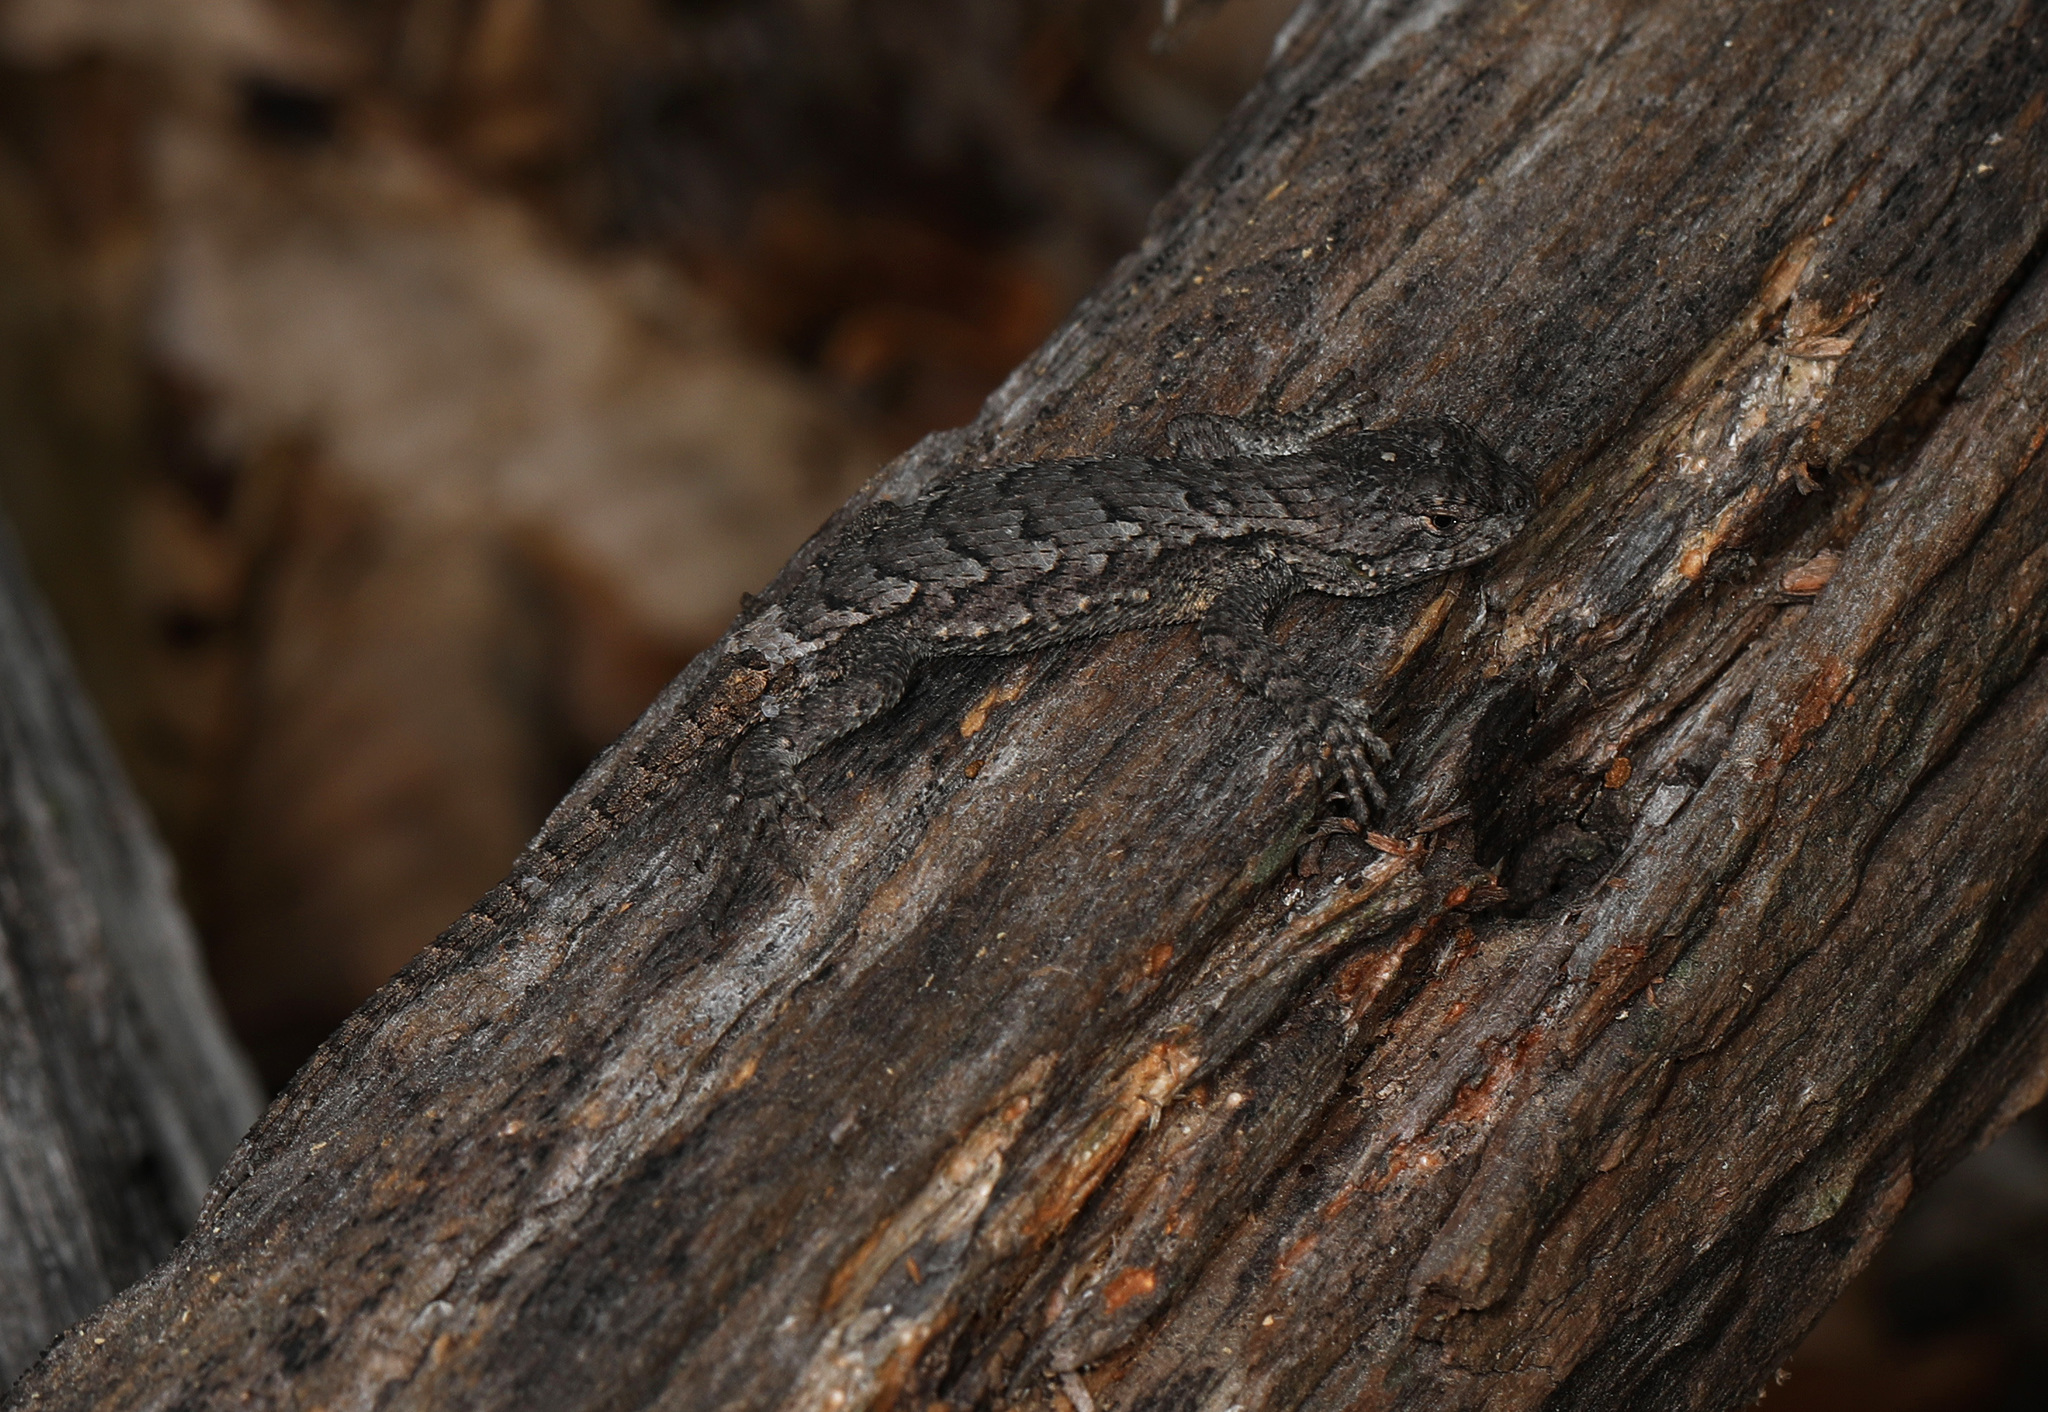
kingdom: Animalia
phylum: Chordata
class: Squamata
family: Phrynosomatidae
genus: Sceloporus
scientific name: Sceloporus undulatus
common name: Eastern fence lizard
